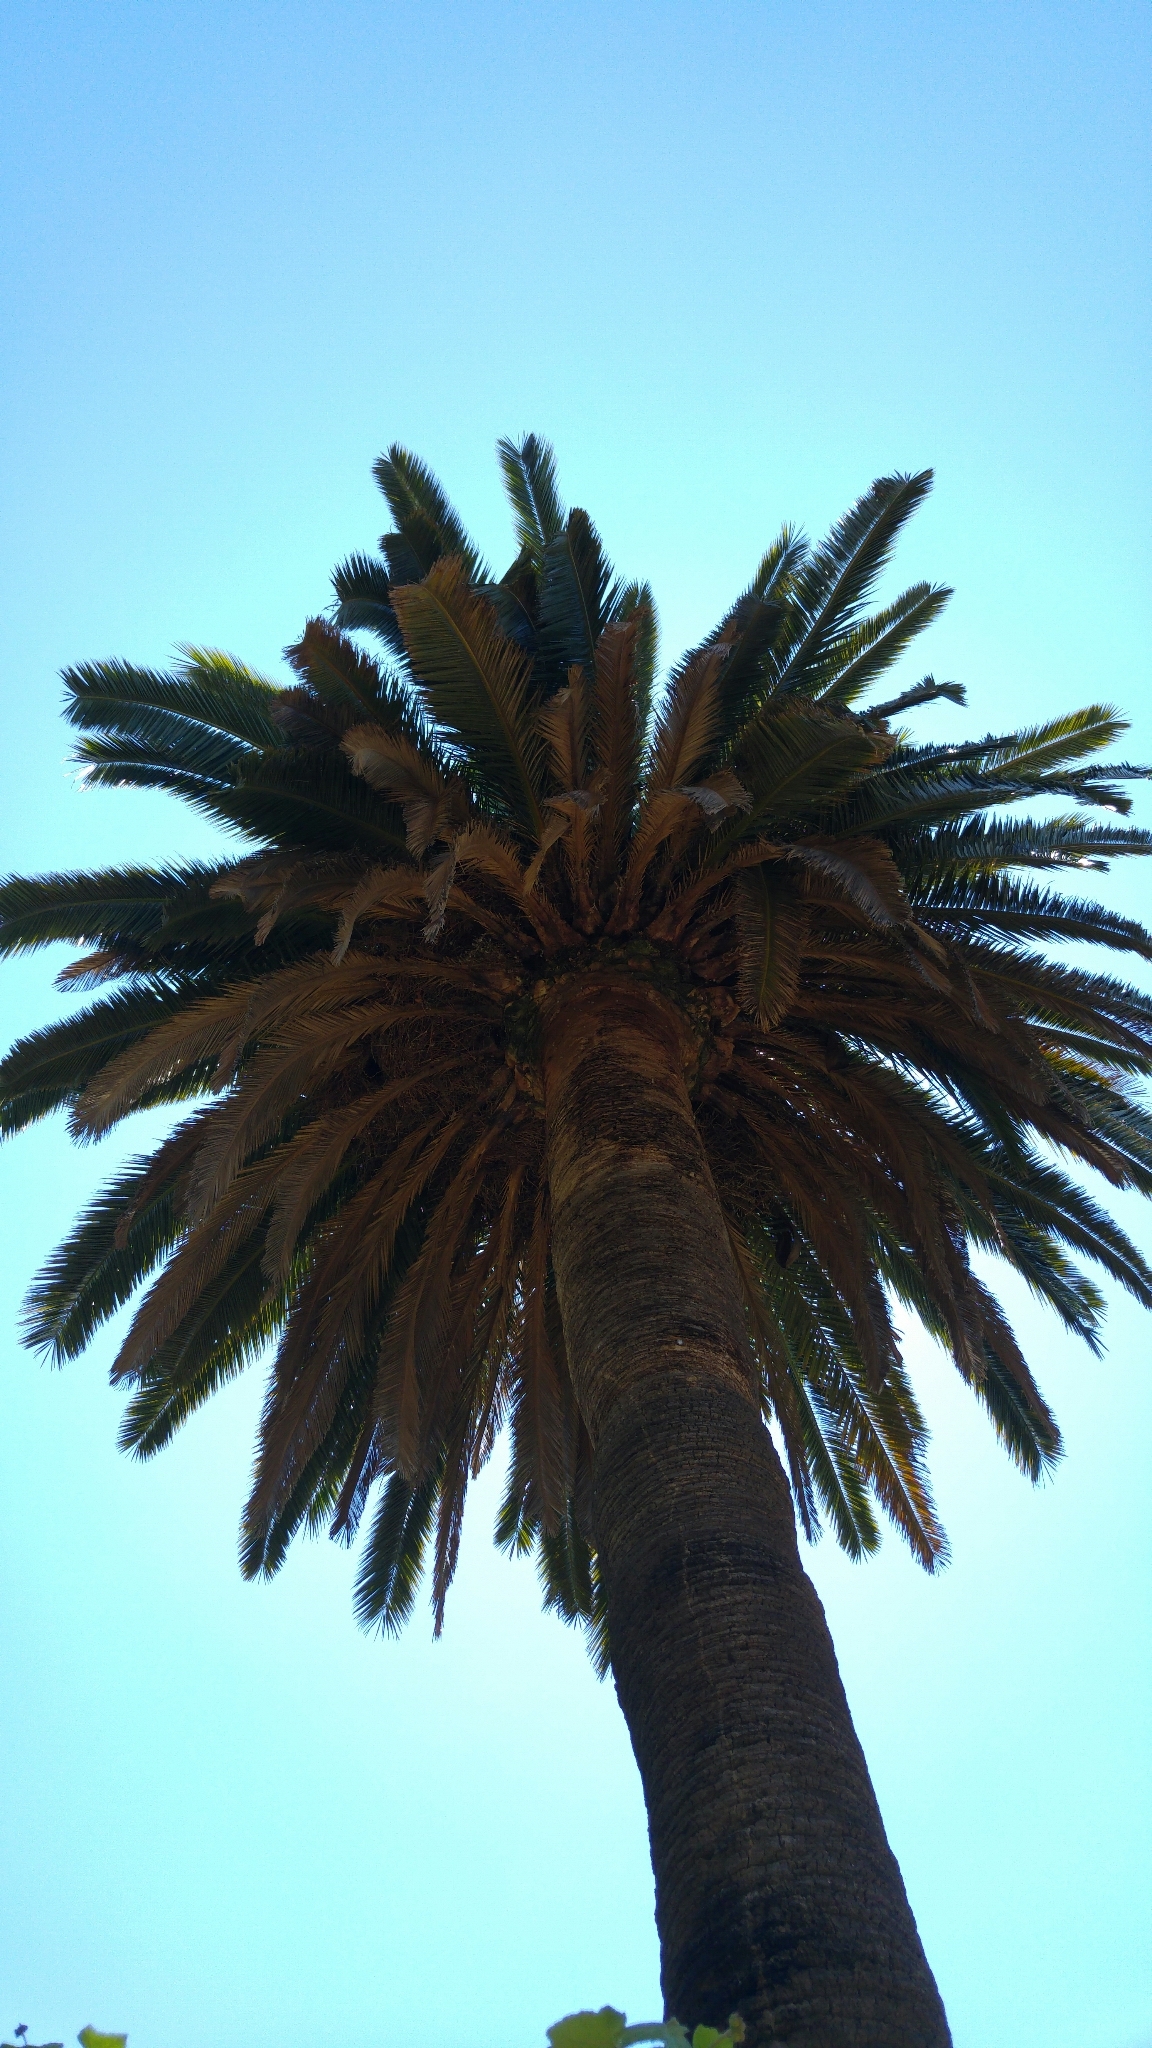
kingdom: Animalia
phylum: Chordata
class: Aves
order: Psittaciformes
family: Psittacidae
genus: Myiopsitta
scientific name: Myiopsitta monachus
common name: Monk parakeet
